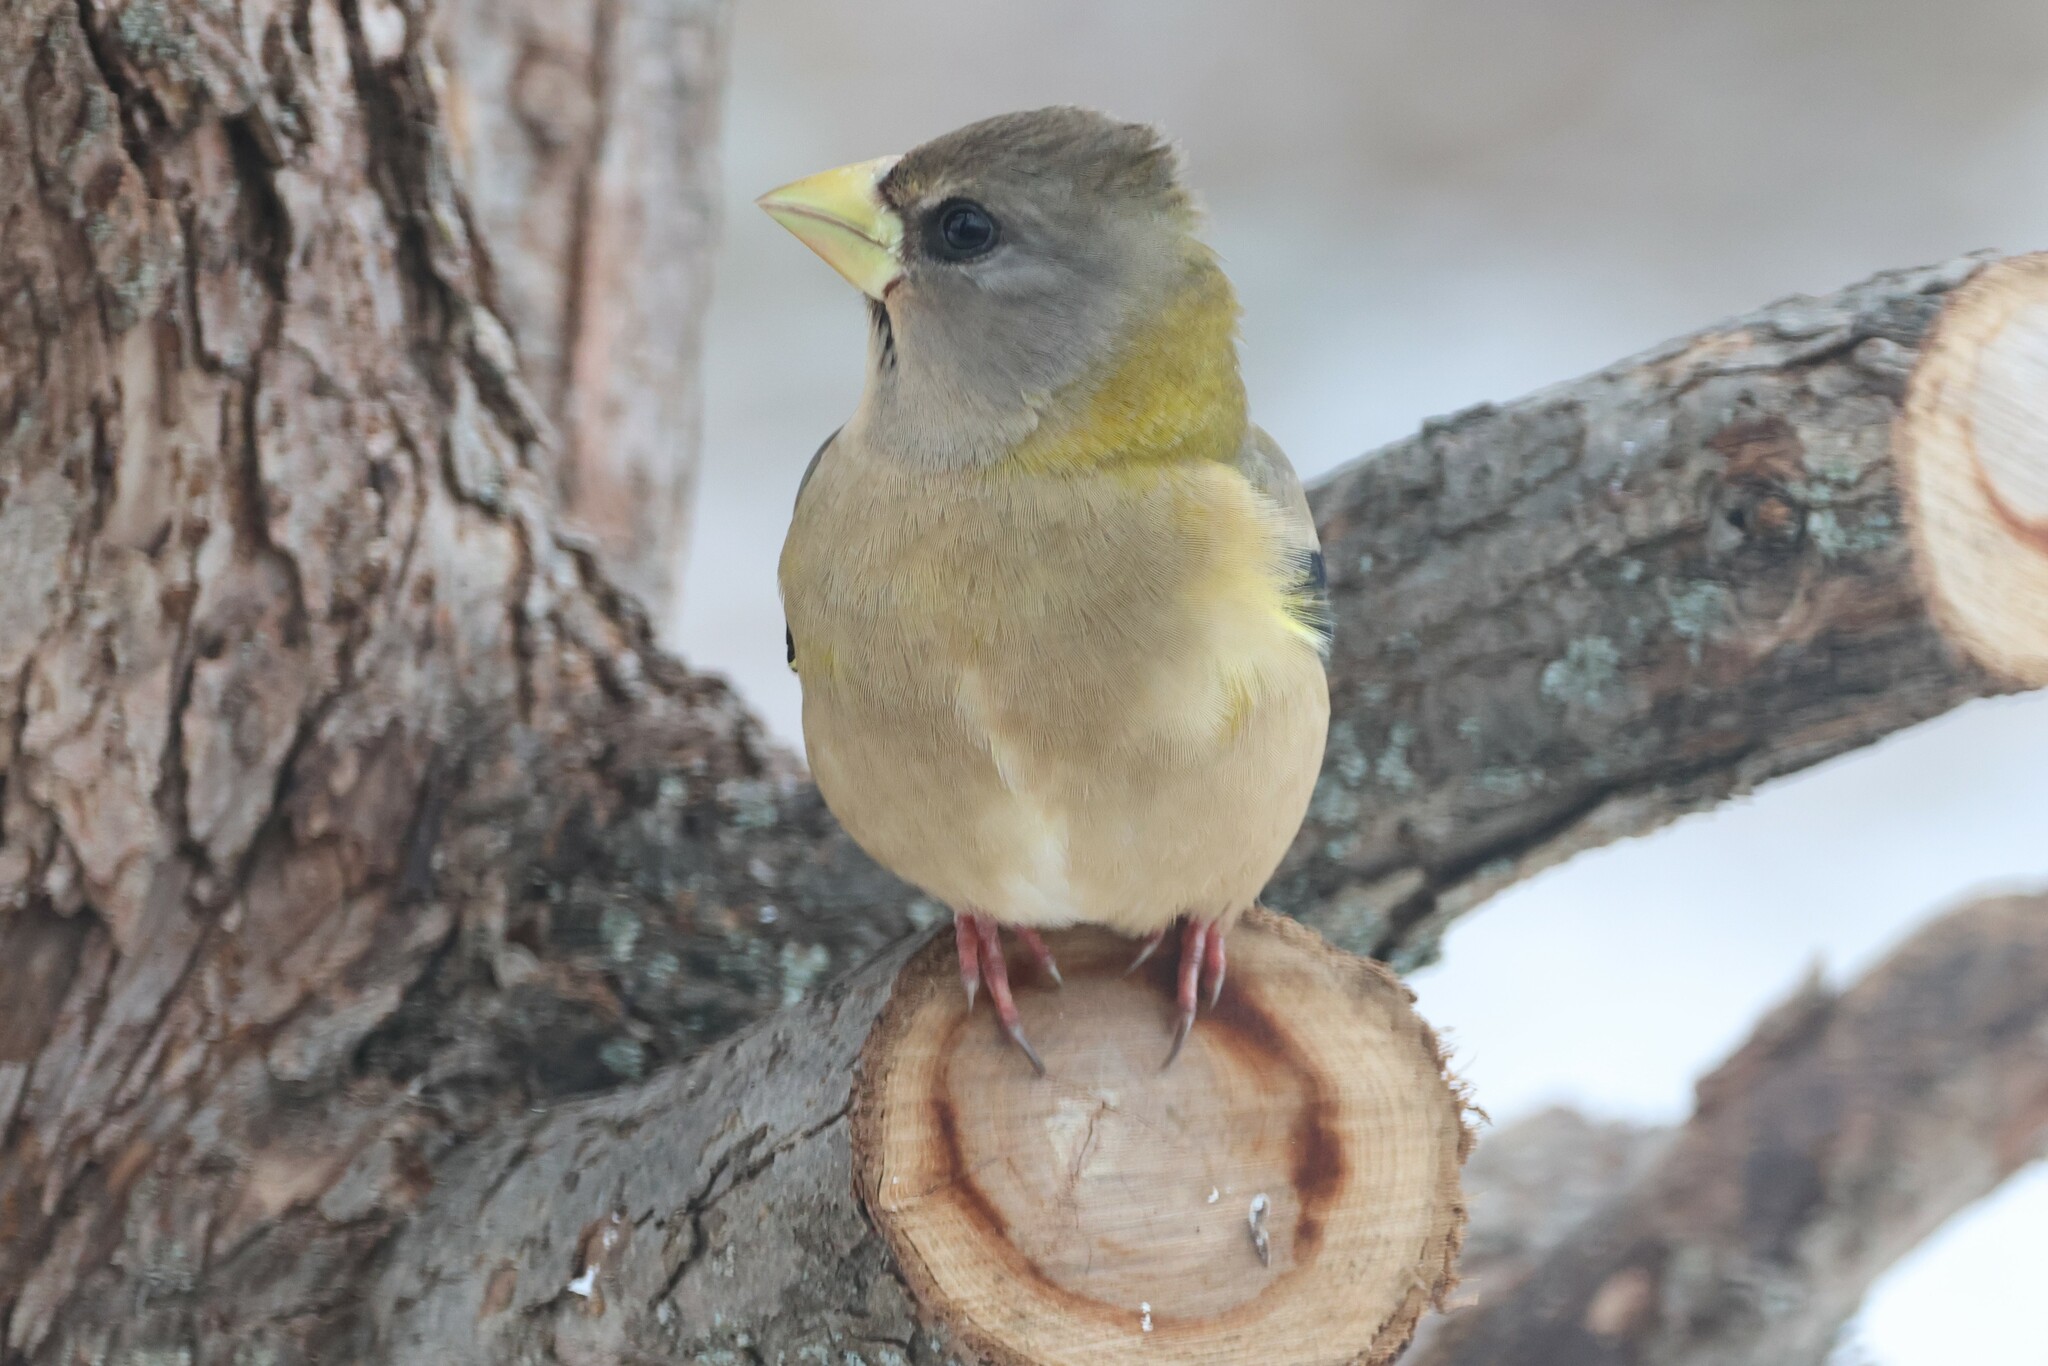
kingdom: Animalia
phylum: Chordata
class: Aves
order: Passeriformes
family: Fringillidae
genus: Hesperiphona
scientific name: Hesperiphona vespertina
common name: Evening grosbeak
